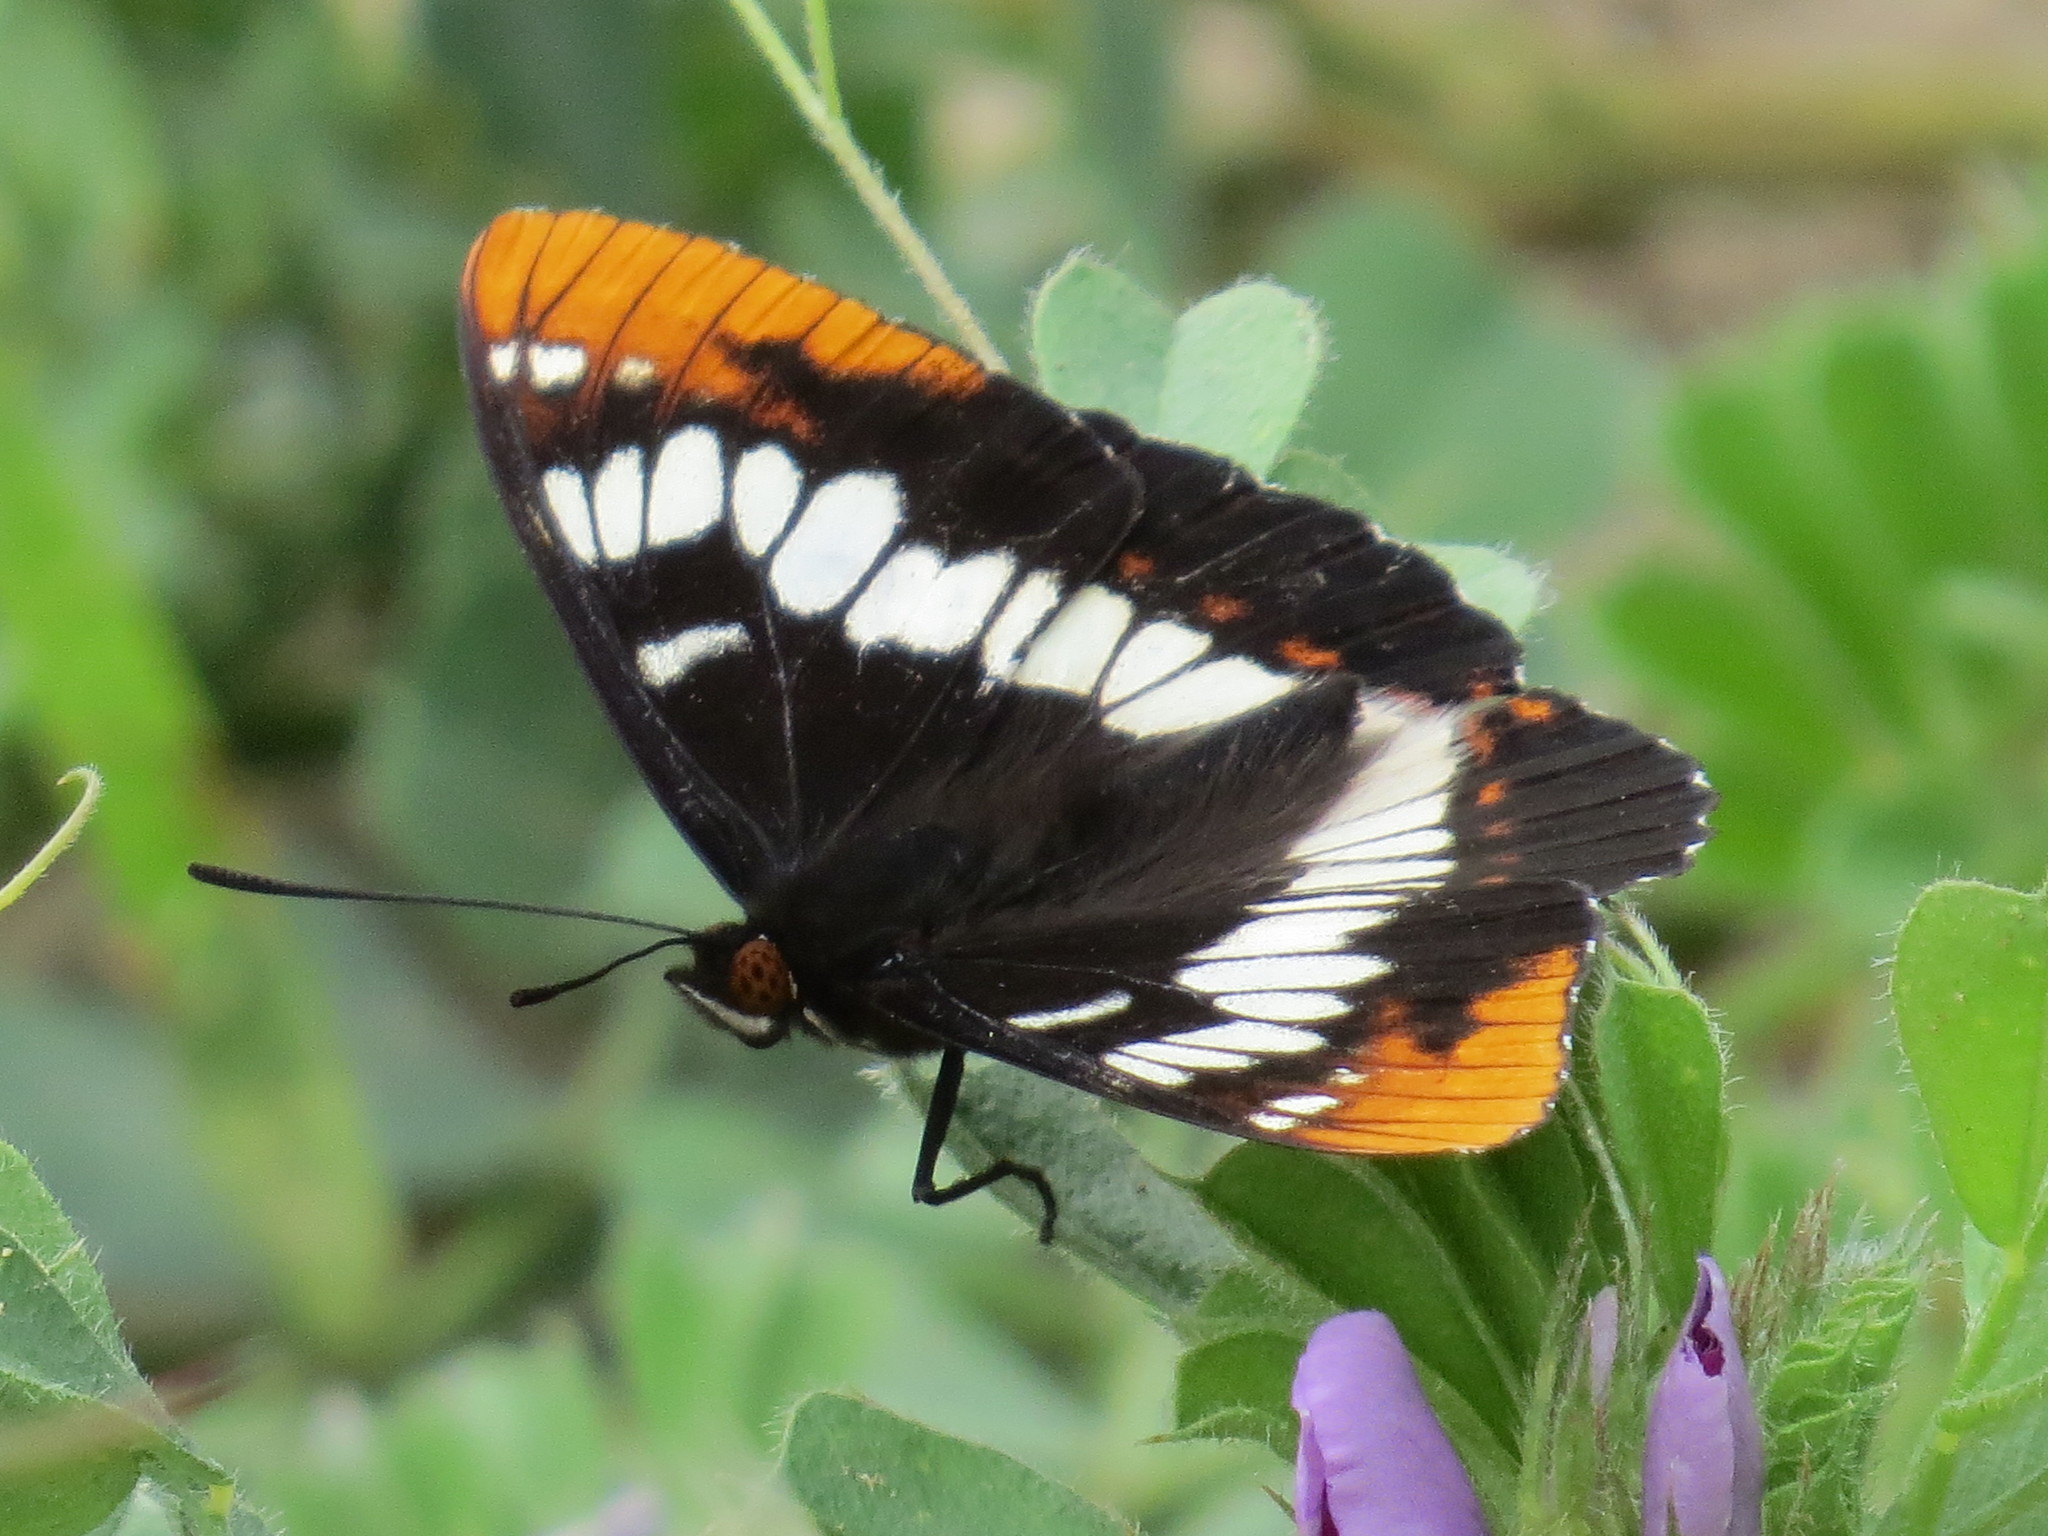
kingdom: Animalia
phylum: Arthropoda
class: Insecta
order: Lepidoptera
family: Nymphalidae
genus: Limenitis
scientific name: Limenitis lorquini
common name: Lorquin's admiral
